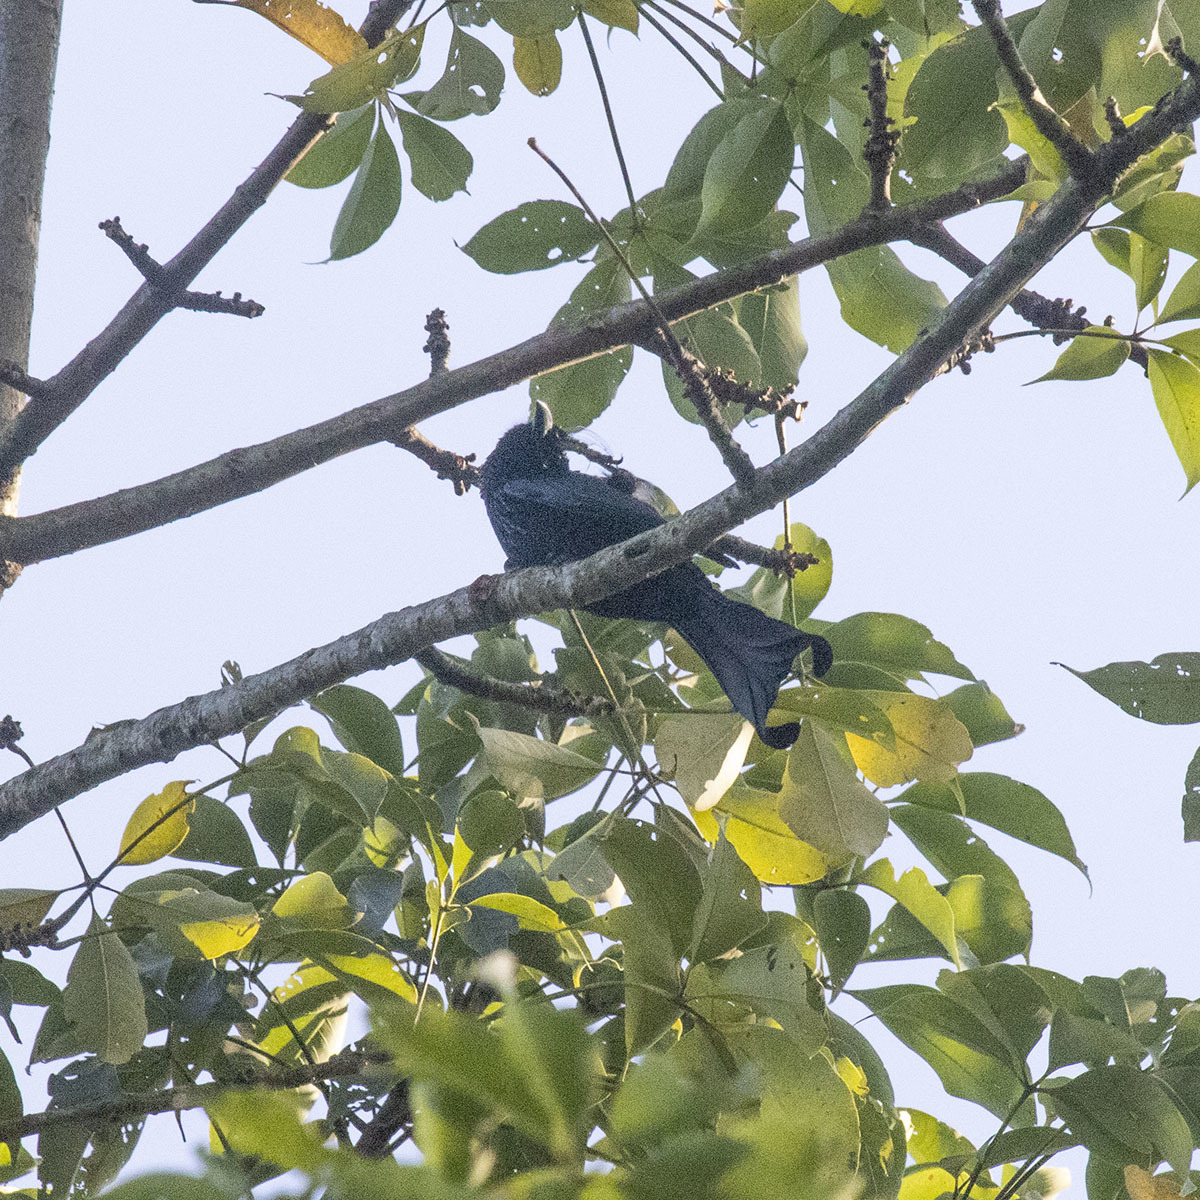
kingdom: Animalia
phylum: Chordata
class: Aves
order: Passeriformes
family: Dicruridae
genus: Dicrurus
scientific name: Dicrurus hottentottus
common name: Hair-crested drongo
